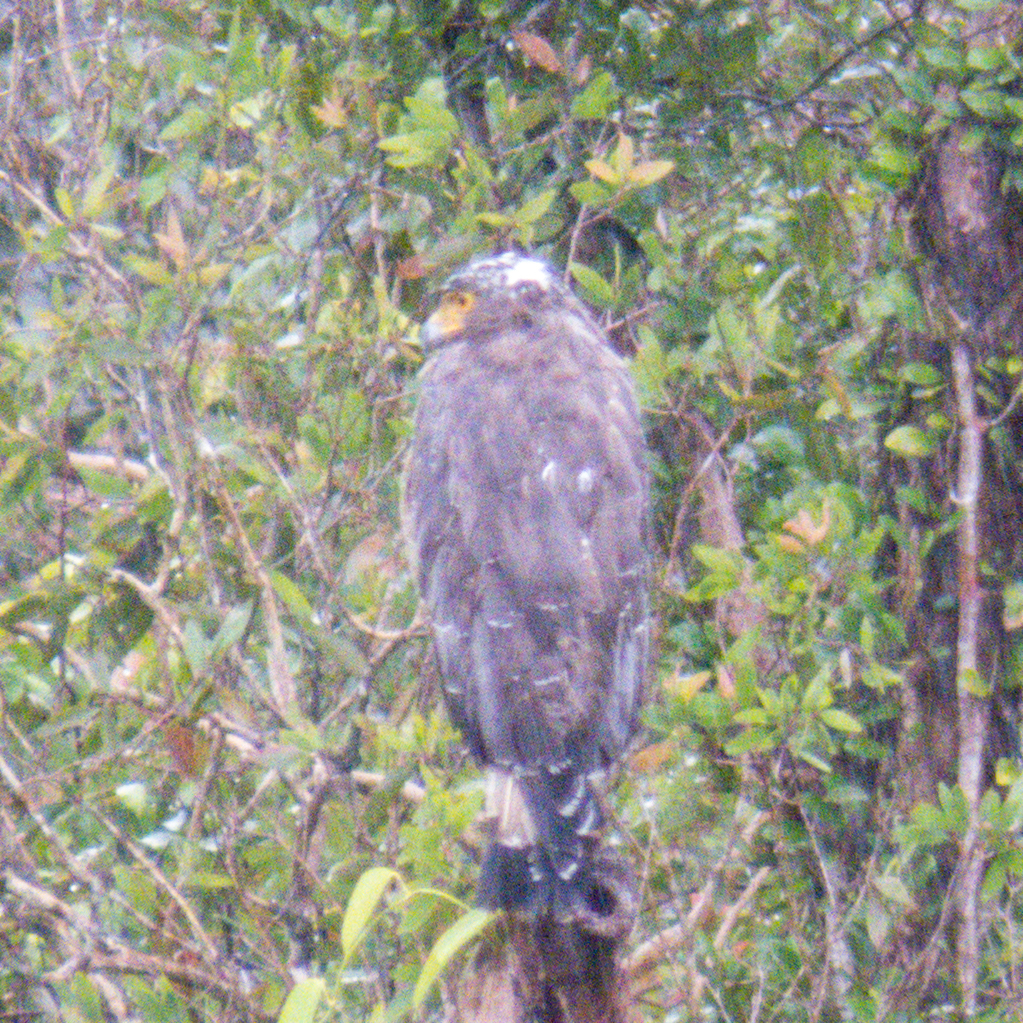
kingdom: Animalia
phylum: Chordata
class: Aves
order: Accipitriformes
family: Accipitridae
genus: Spilornis
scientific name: Spilornis cheela
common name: Crested serpent eagle
